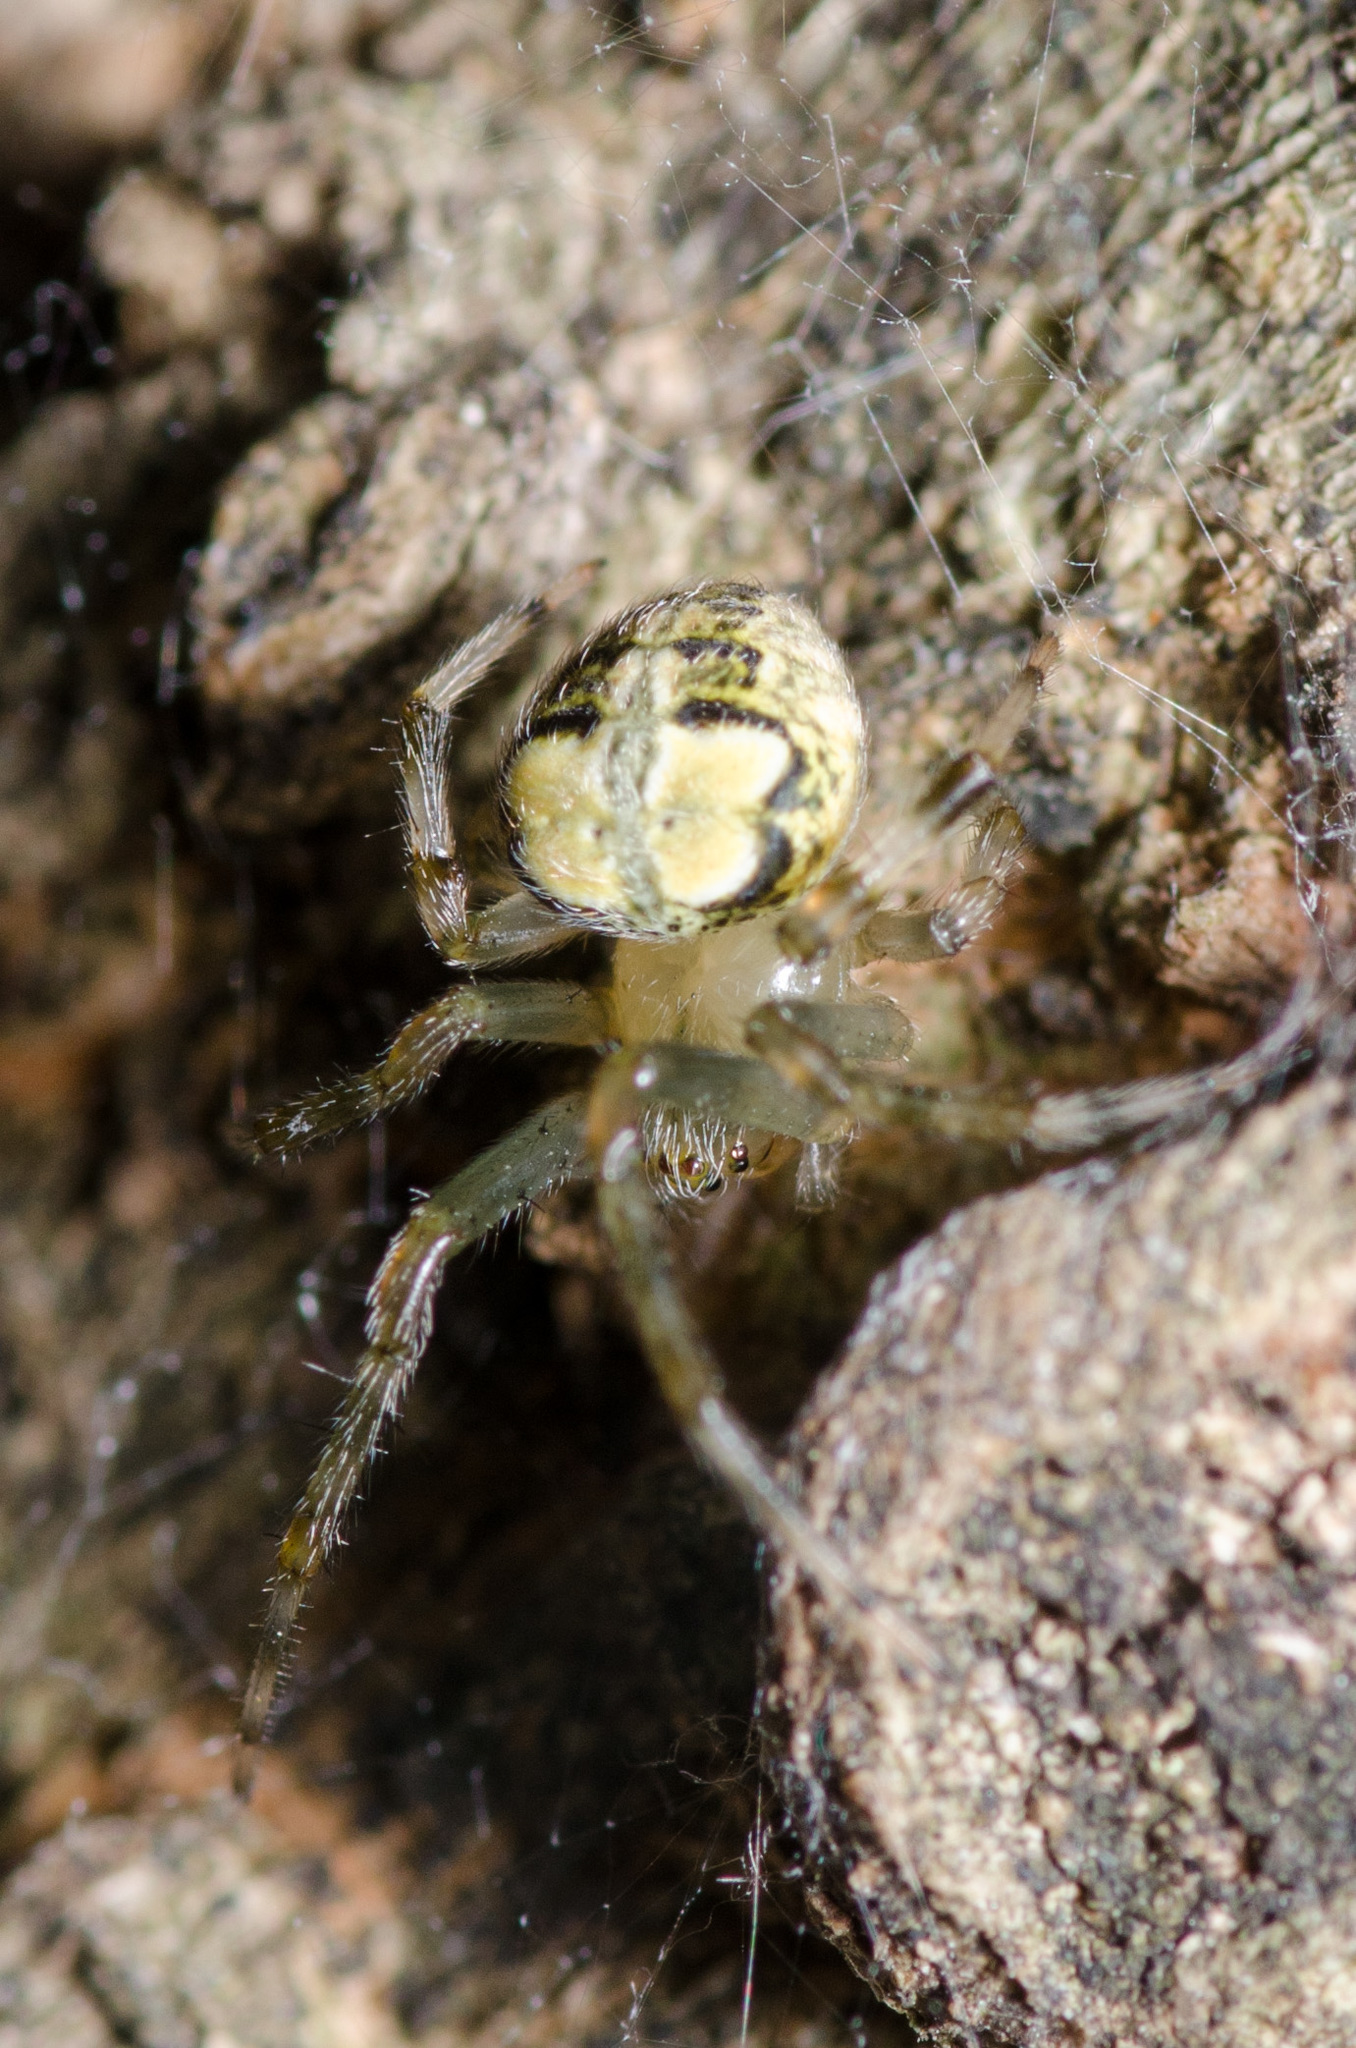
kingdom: Animalia
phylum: Arthropoda
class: Arachnida
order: Araneae
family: Araneidae
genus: Araneus
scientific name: Araneus pegnia
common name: Orb weavers
